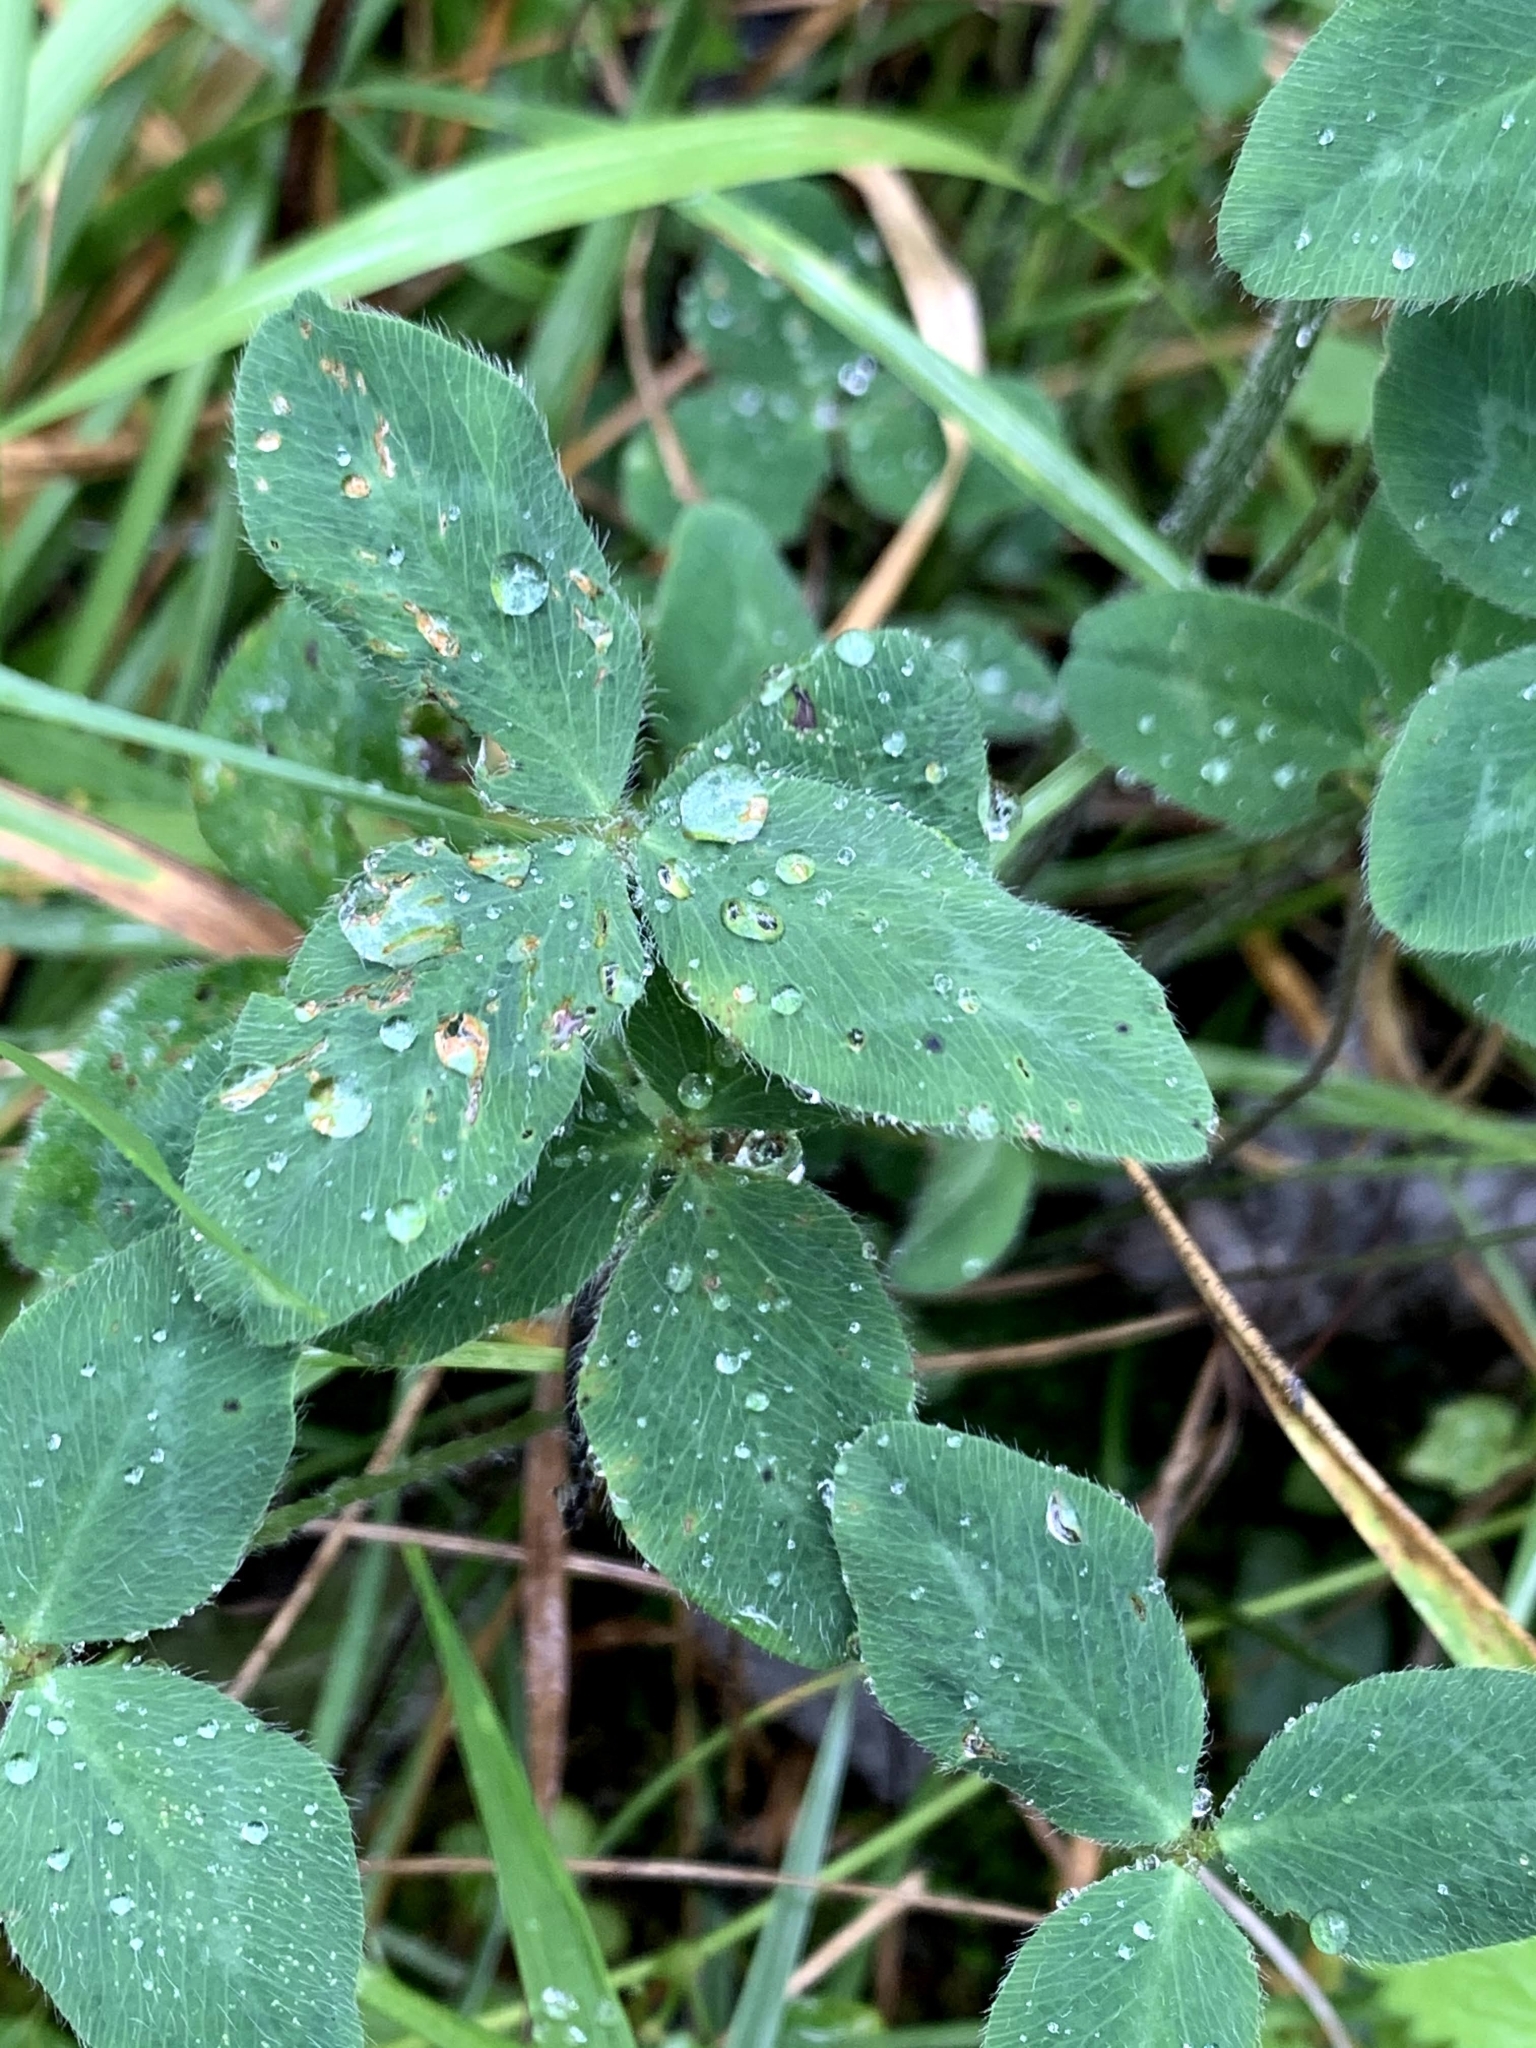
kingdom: Plantae
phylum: Tracheophyta
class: Magnoliopsida
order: Fabales
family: Fabaceae
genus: Trifolium
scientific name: Trifolium pratense
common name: Red clover
